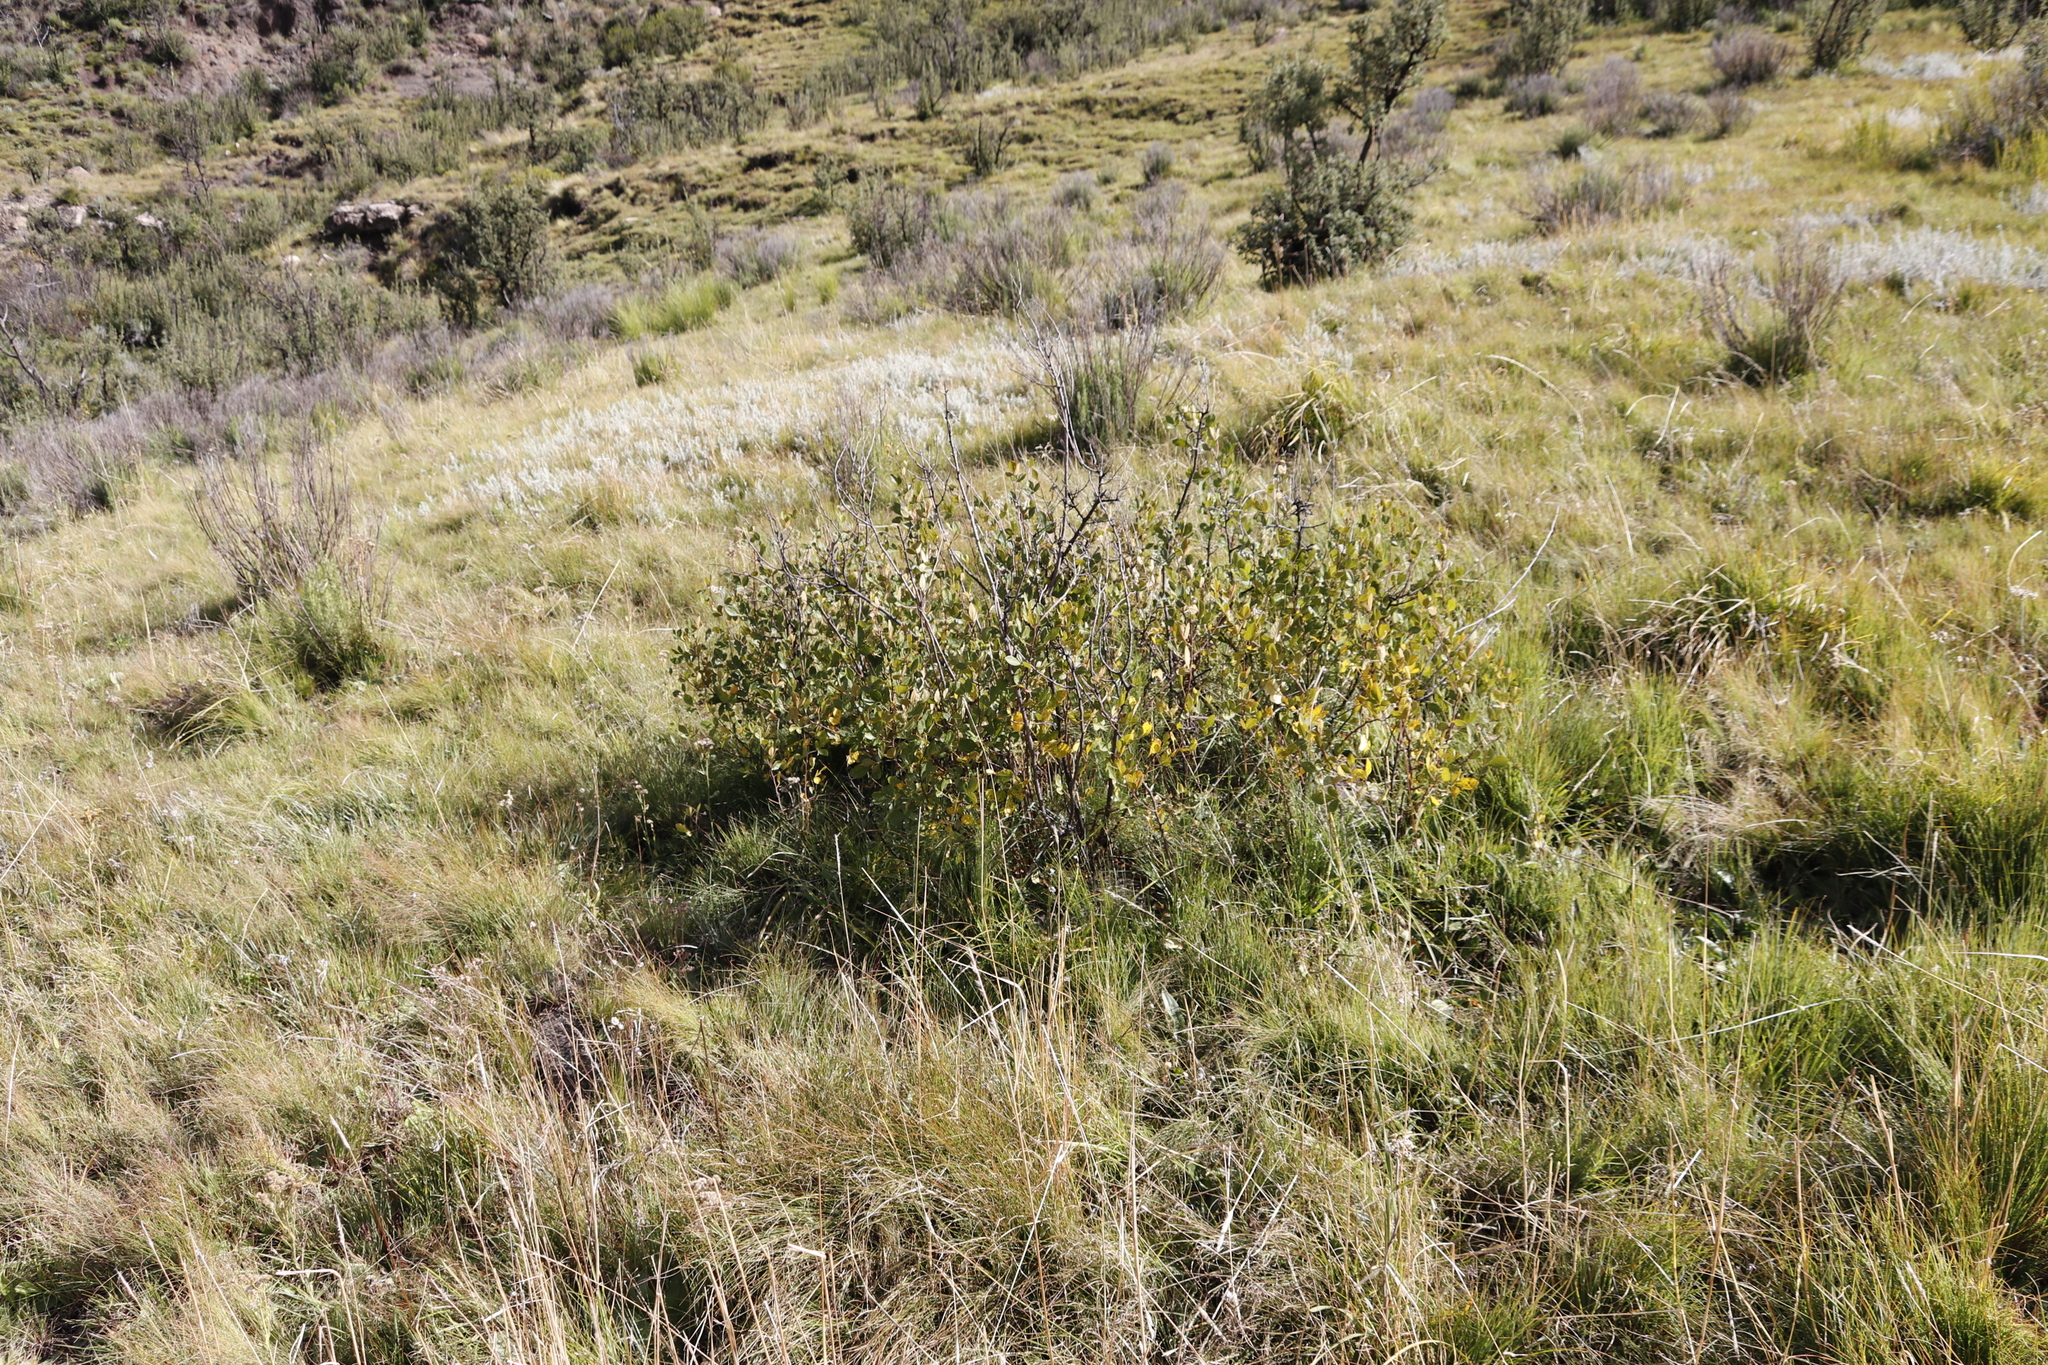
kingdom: Plantae
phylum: Tracheophyta
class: Magnoliopsida
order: Sapindales
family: Anacardiaceae
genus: Searsia
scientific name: Searsia divaricata
